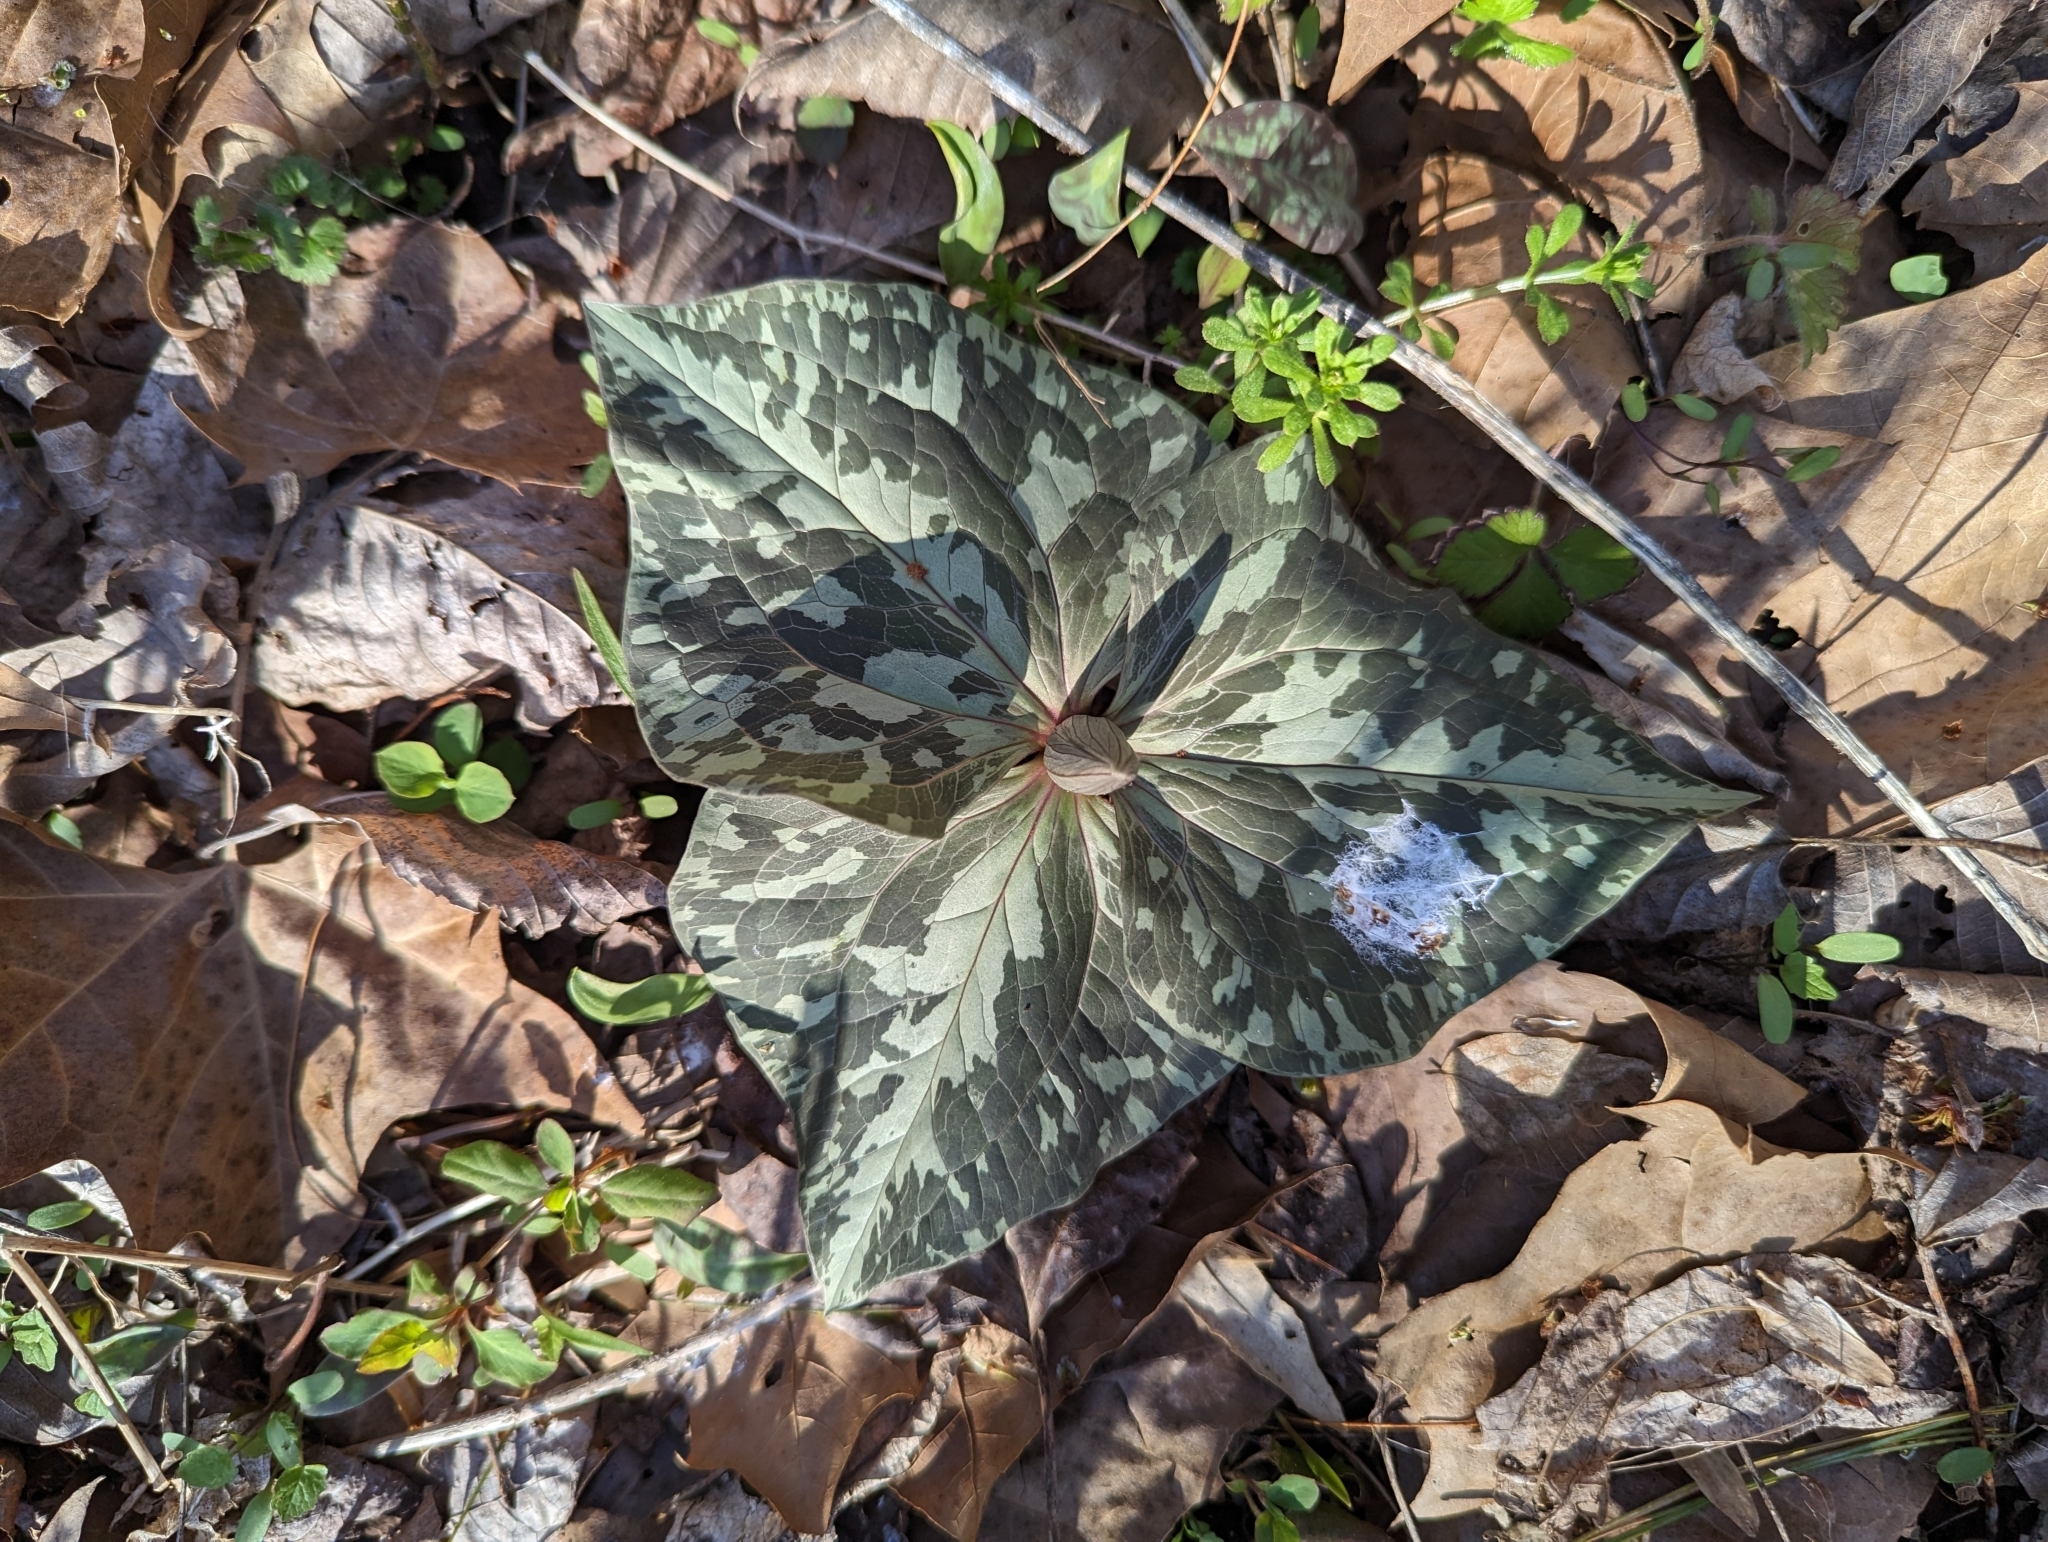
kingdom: Plantae
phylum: Tracheophyta
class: Liliopsida
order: Liliales
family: Melanthiaceae
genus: Trillium
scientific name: Trillium cuneatum
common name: Cuneate trillium
